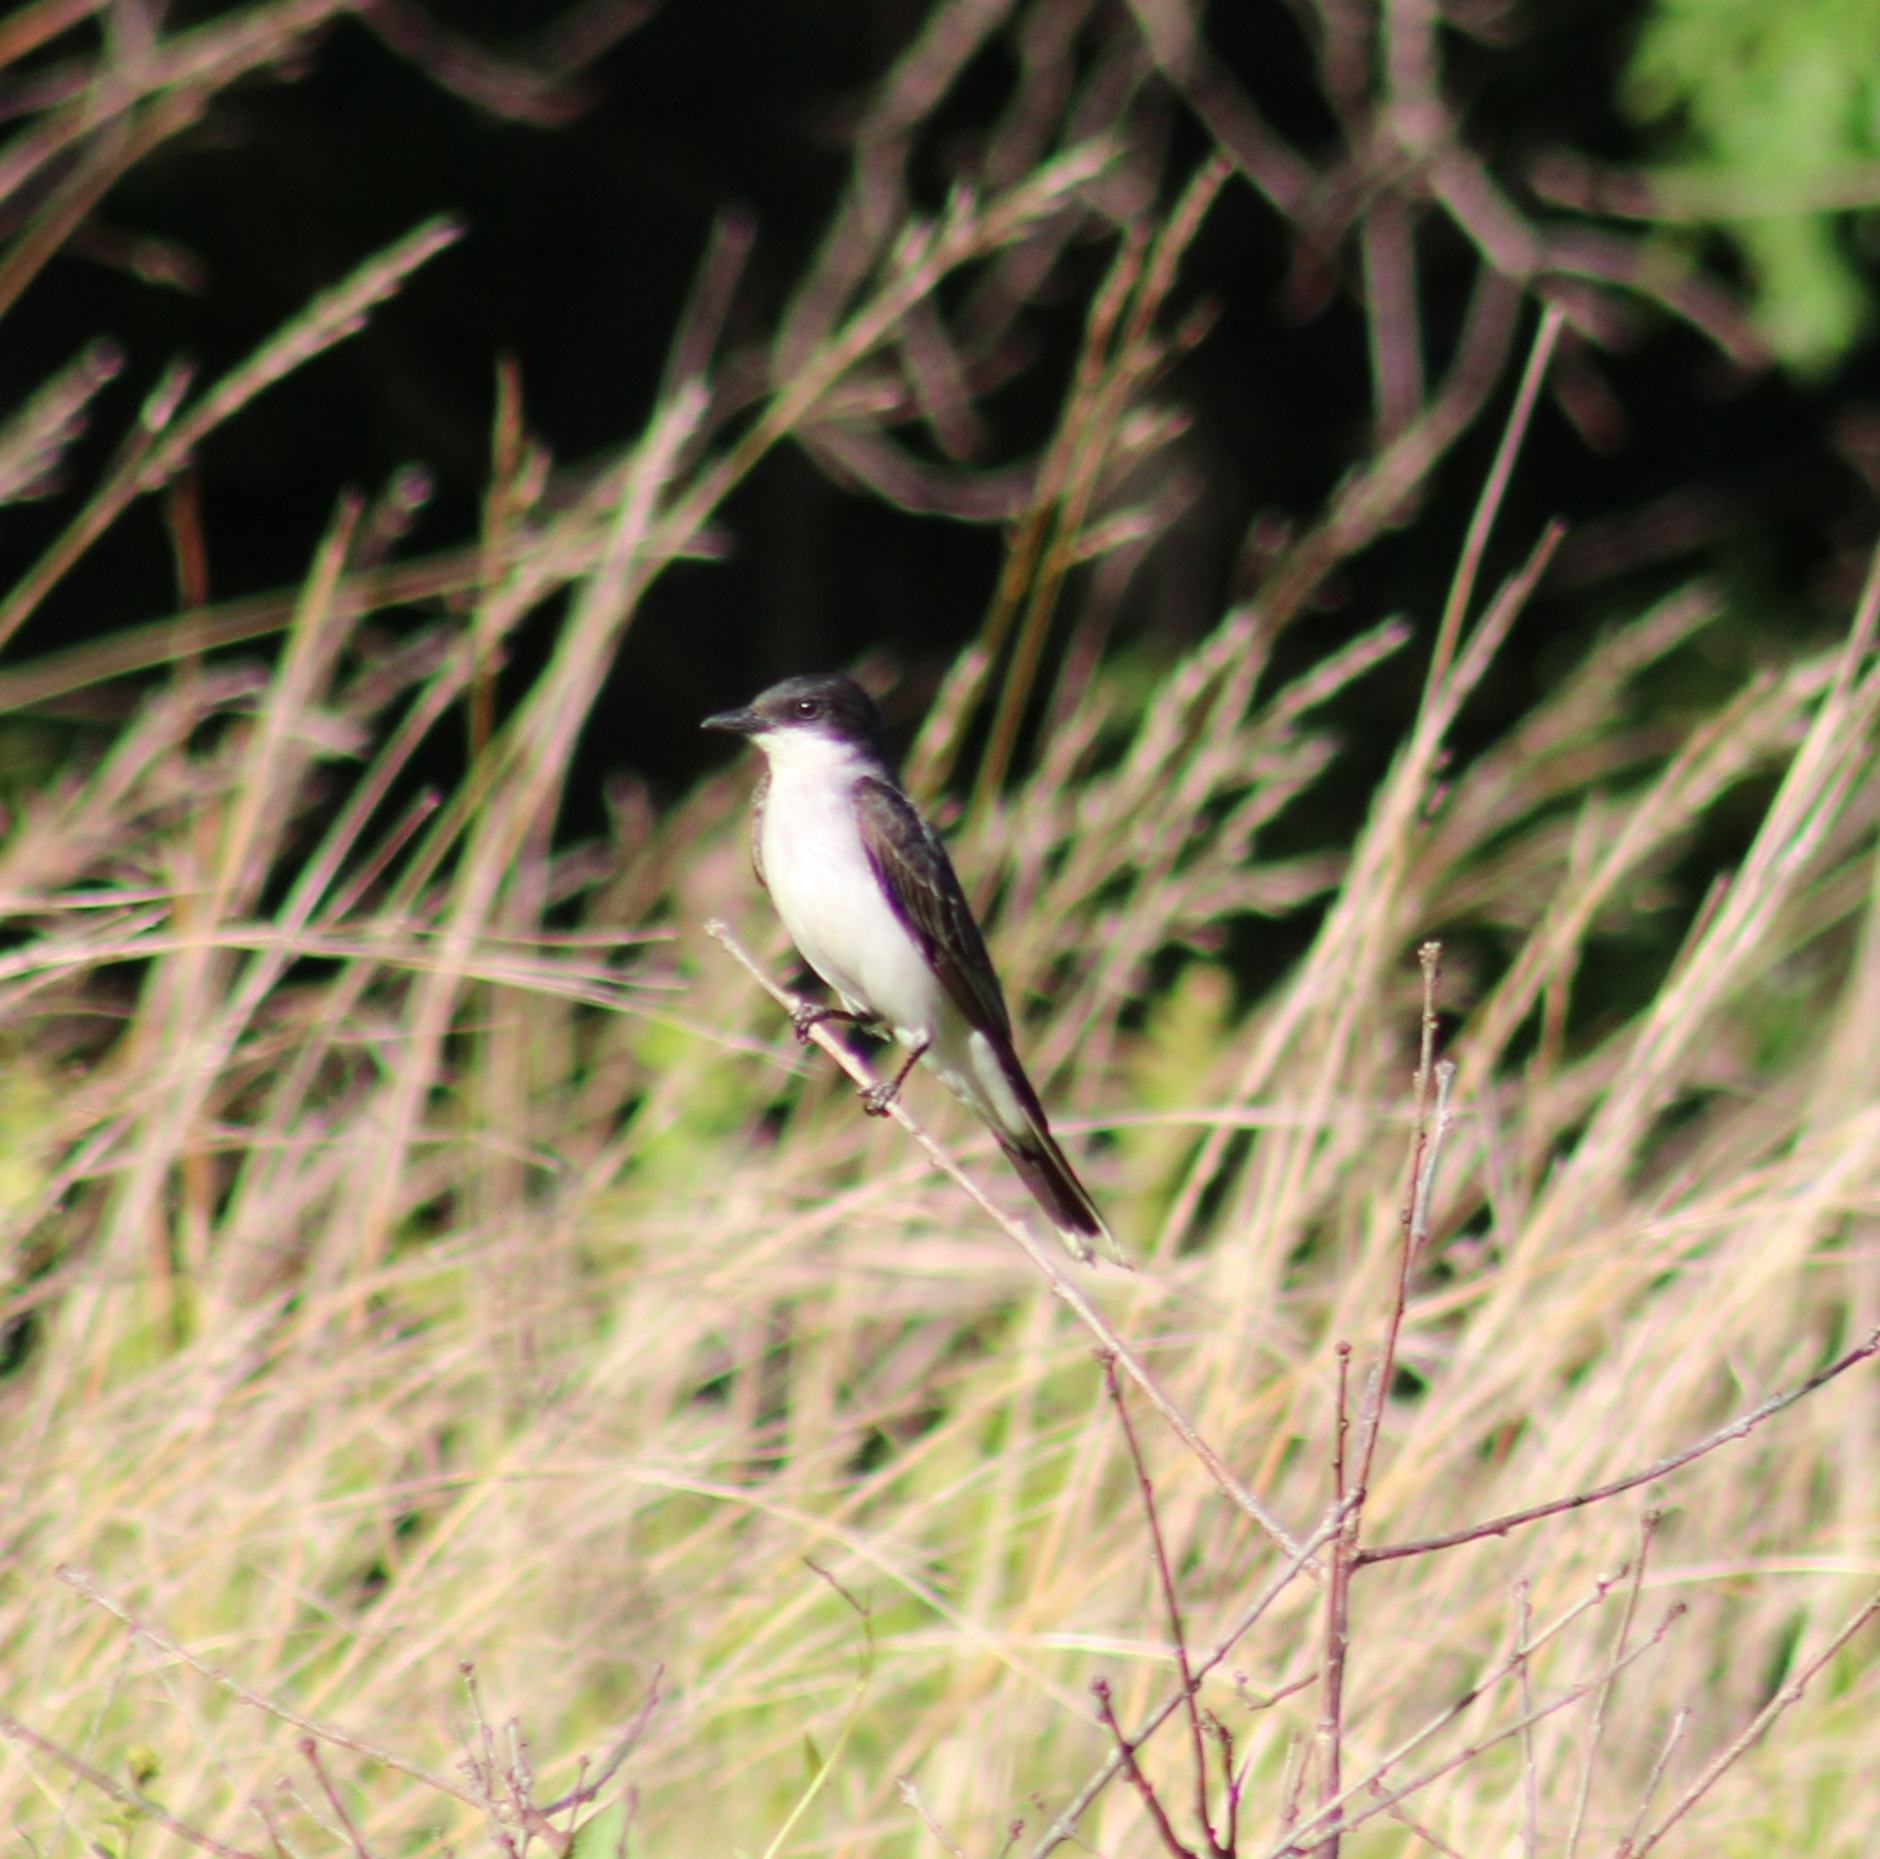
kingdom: Animalia
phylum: Chordata
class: Aves
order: Passeriformes
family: Tyrannidae
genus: Tyrannus
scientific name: Tyrannus tyrannus
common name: Eastern kingbird
